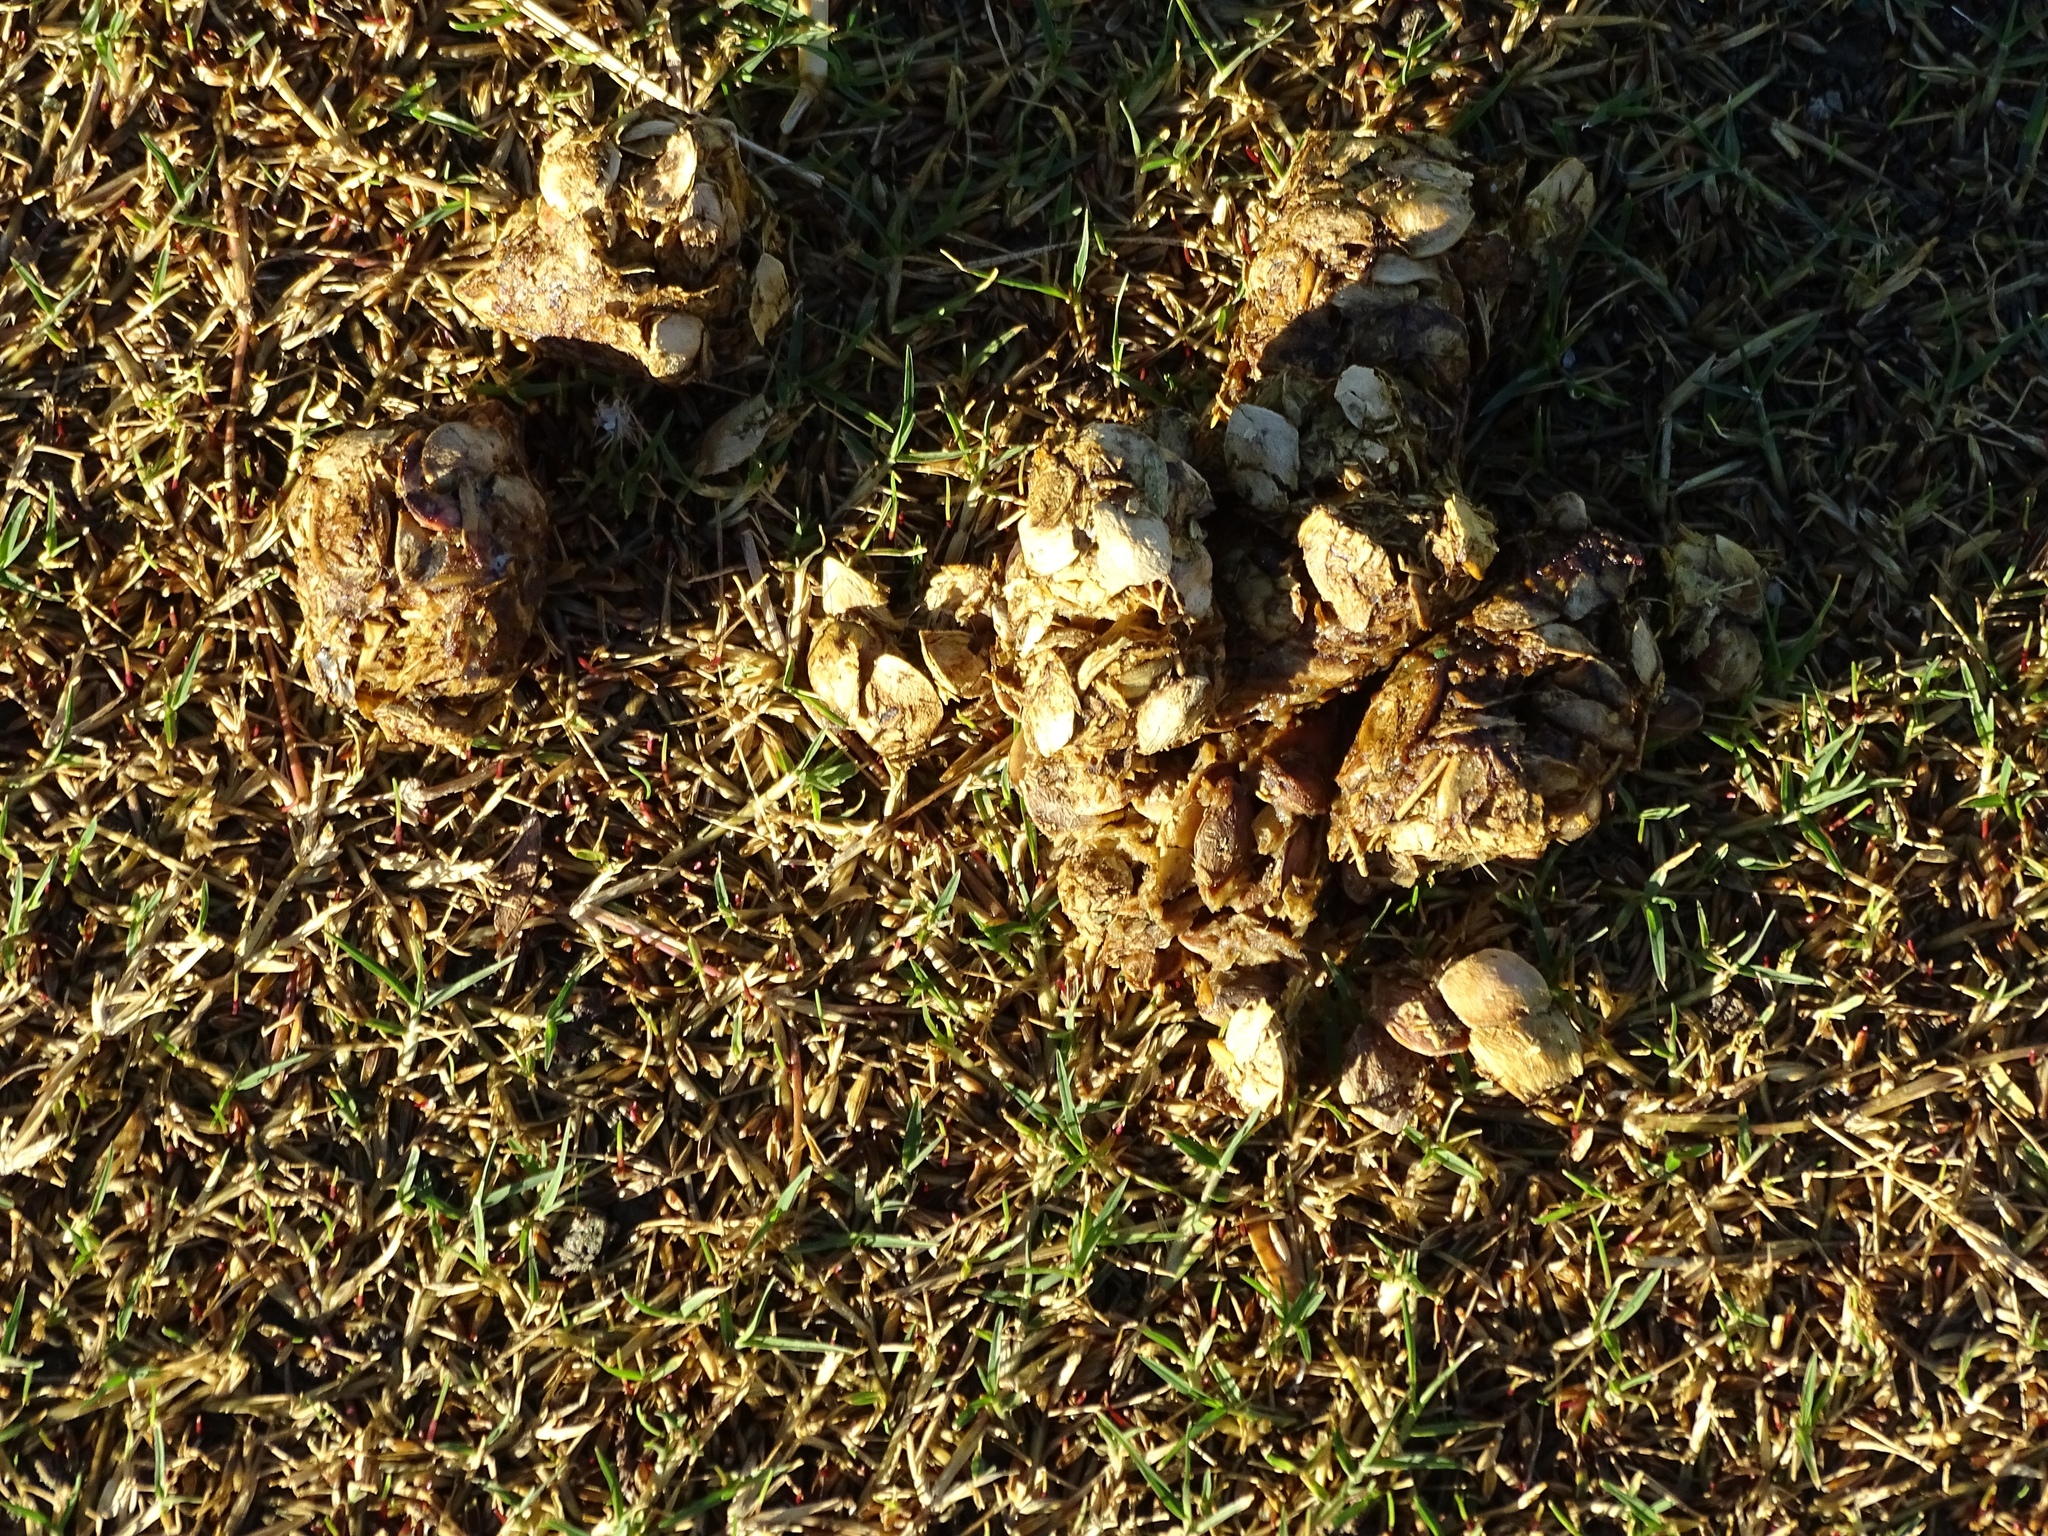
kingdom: Animalia
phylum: Chordata
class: Mammalia
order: Carnivora
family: Canidae
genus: Canis
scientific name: Canis latrans
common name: Coyote
